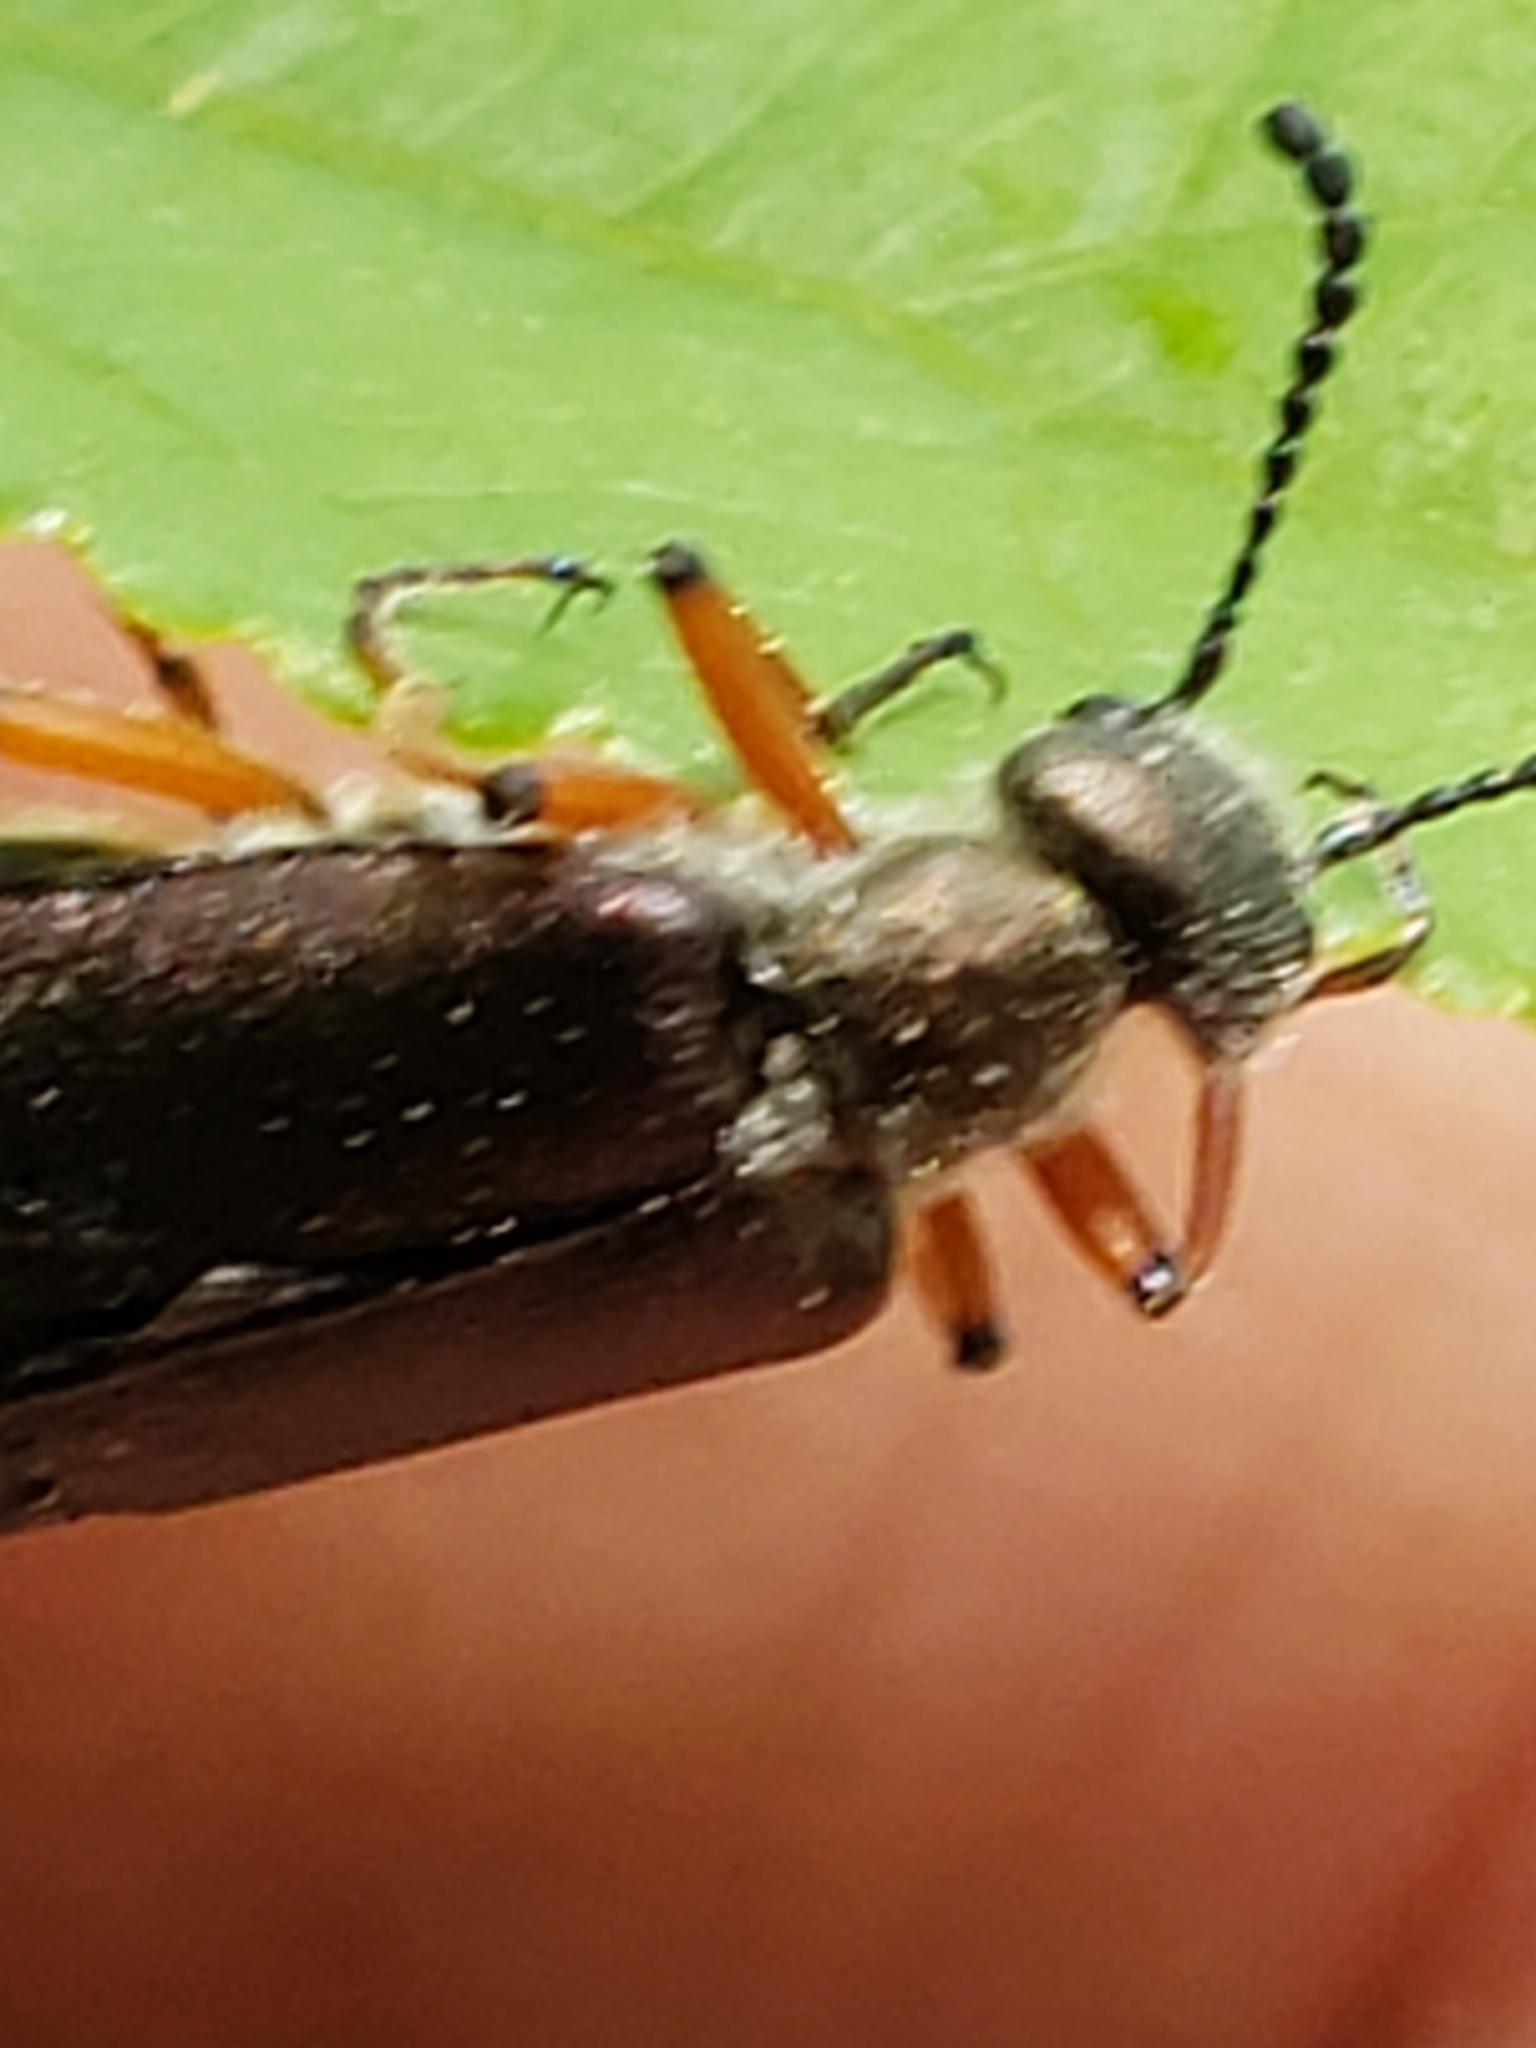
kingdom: Animalia
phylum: Arthropoda
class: Insecta
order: Coleoptera
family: Meloidae
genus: Lytta
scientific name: Lytta aenea
